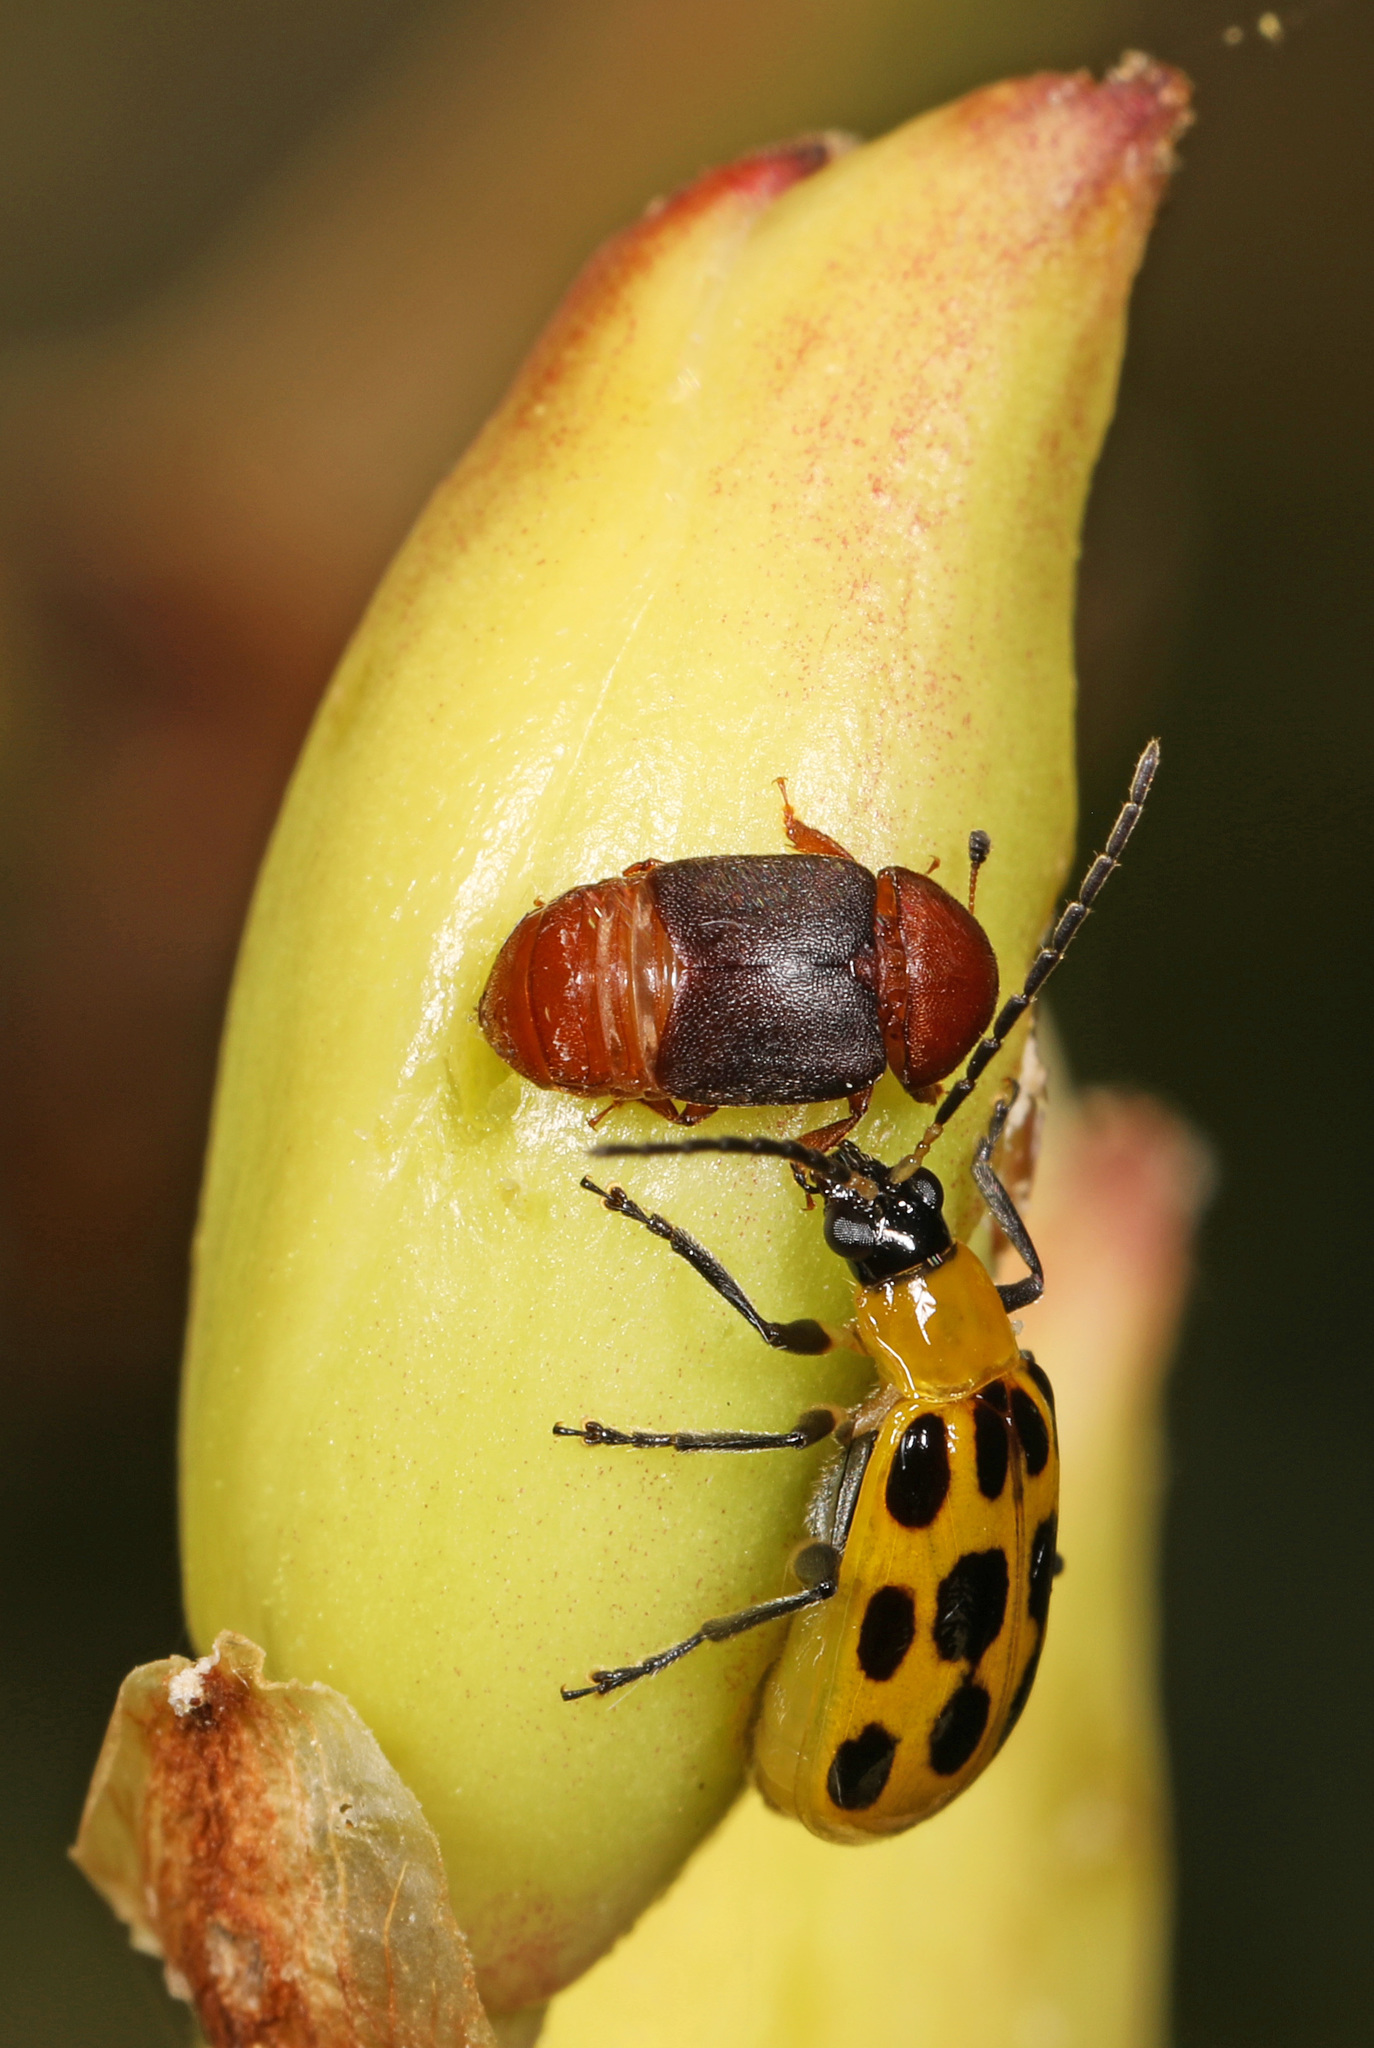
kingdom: Animalia
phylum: Arthropoda
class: Insecta
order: Coleoptera
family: Chrysomelidae
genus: Diabrotica
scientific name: Diabrotica undecimpunctata
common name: Spotted cucumber beetle
